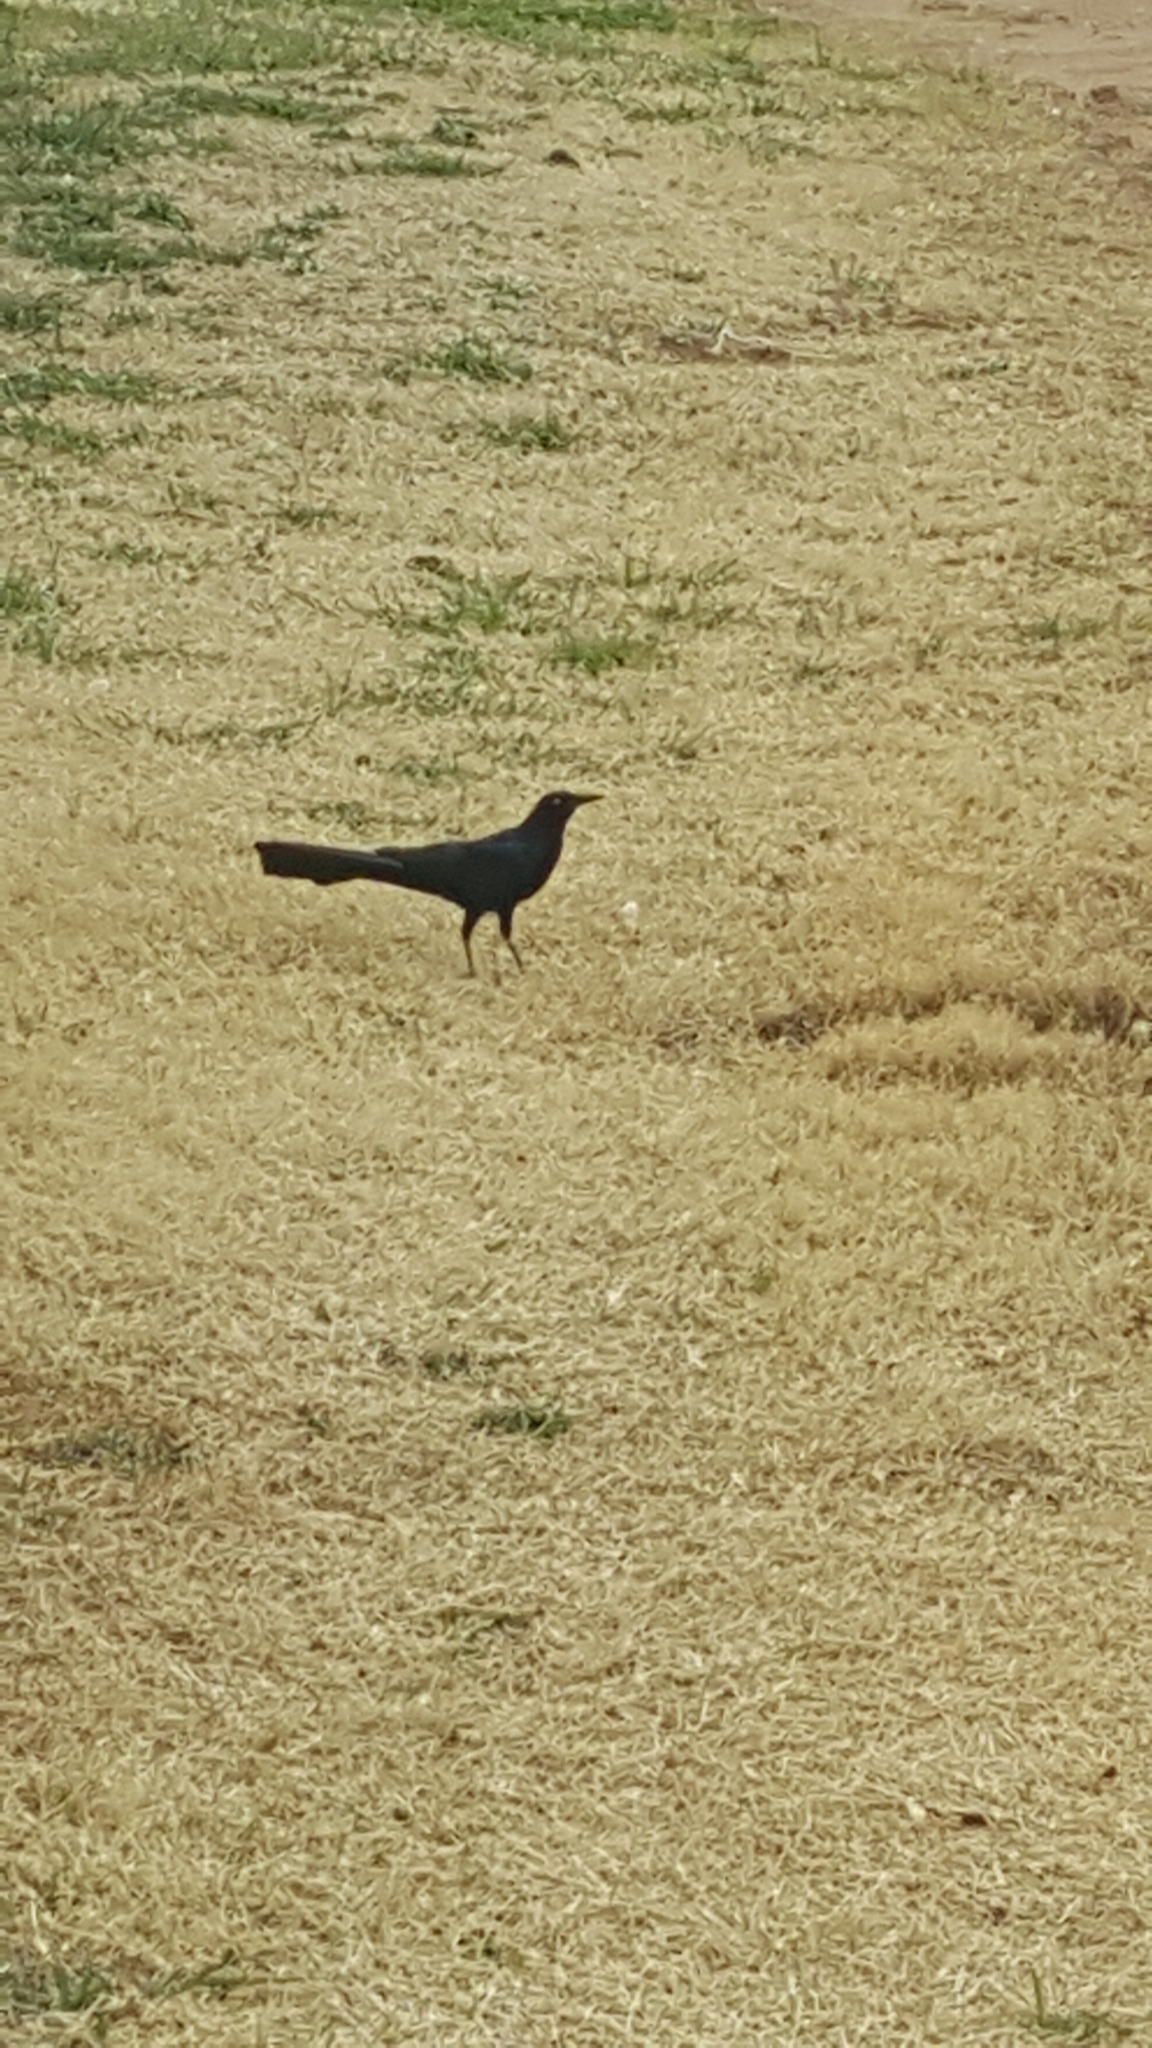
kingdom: Animalia
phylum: Chordata
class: Aves
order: Passeriformes
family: Icteridae
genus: Quiscalus
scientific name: Quiscalus mexicanus
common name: Great-tailed grackle
